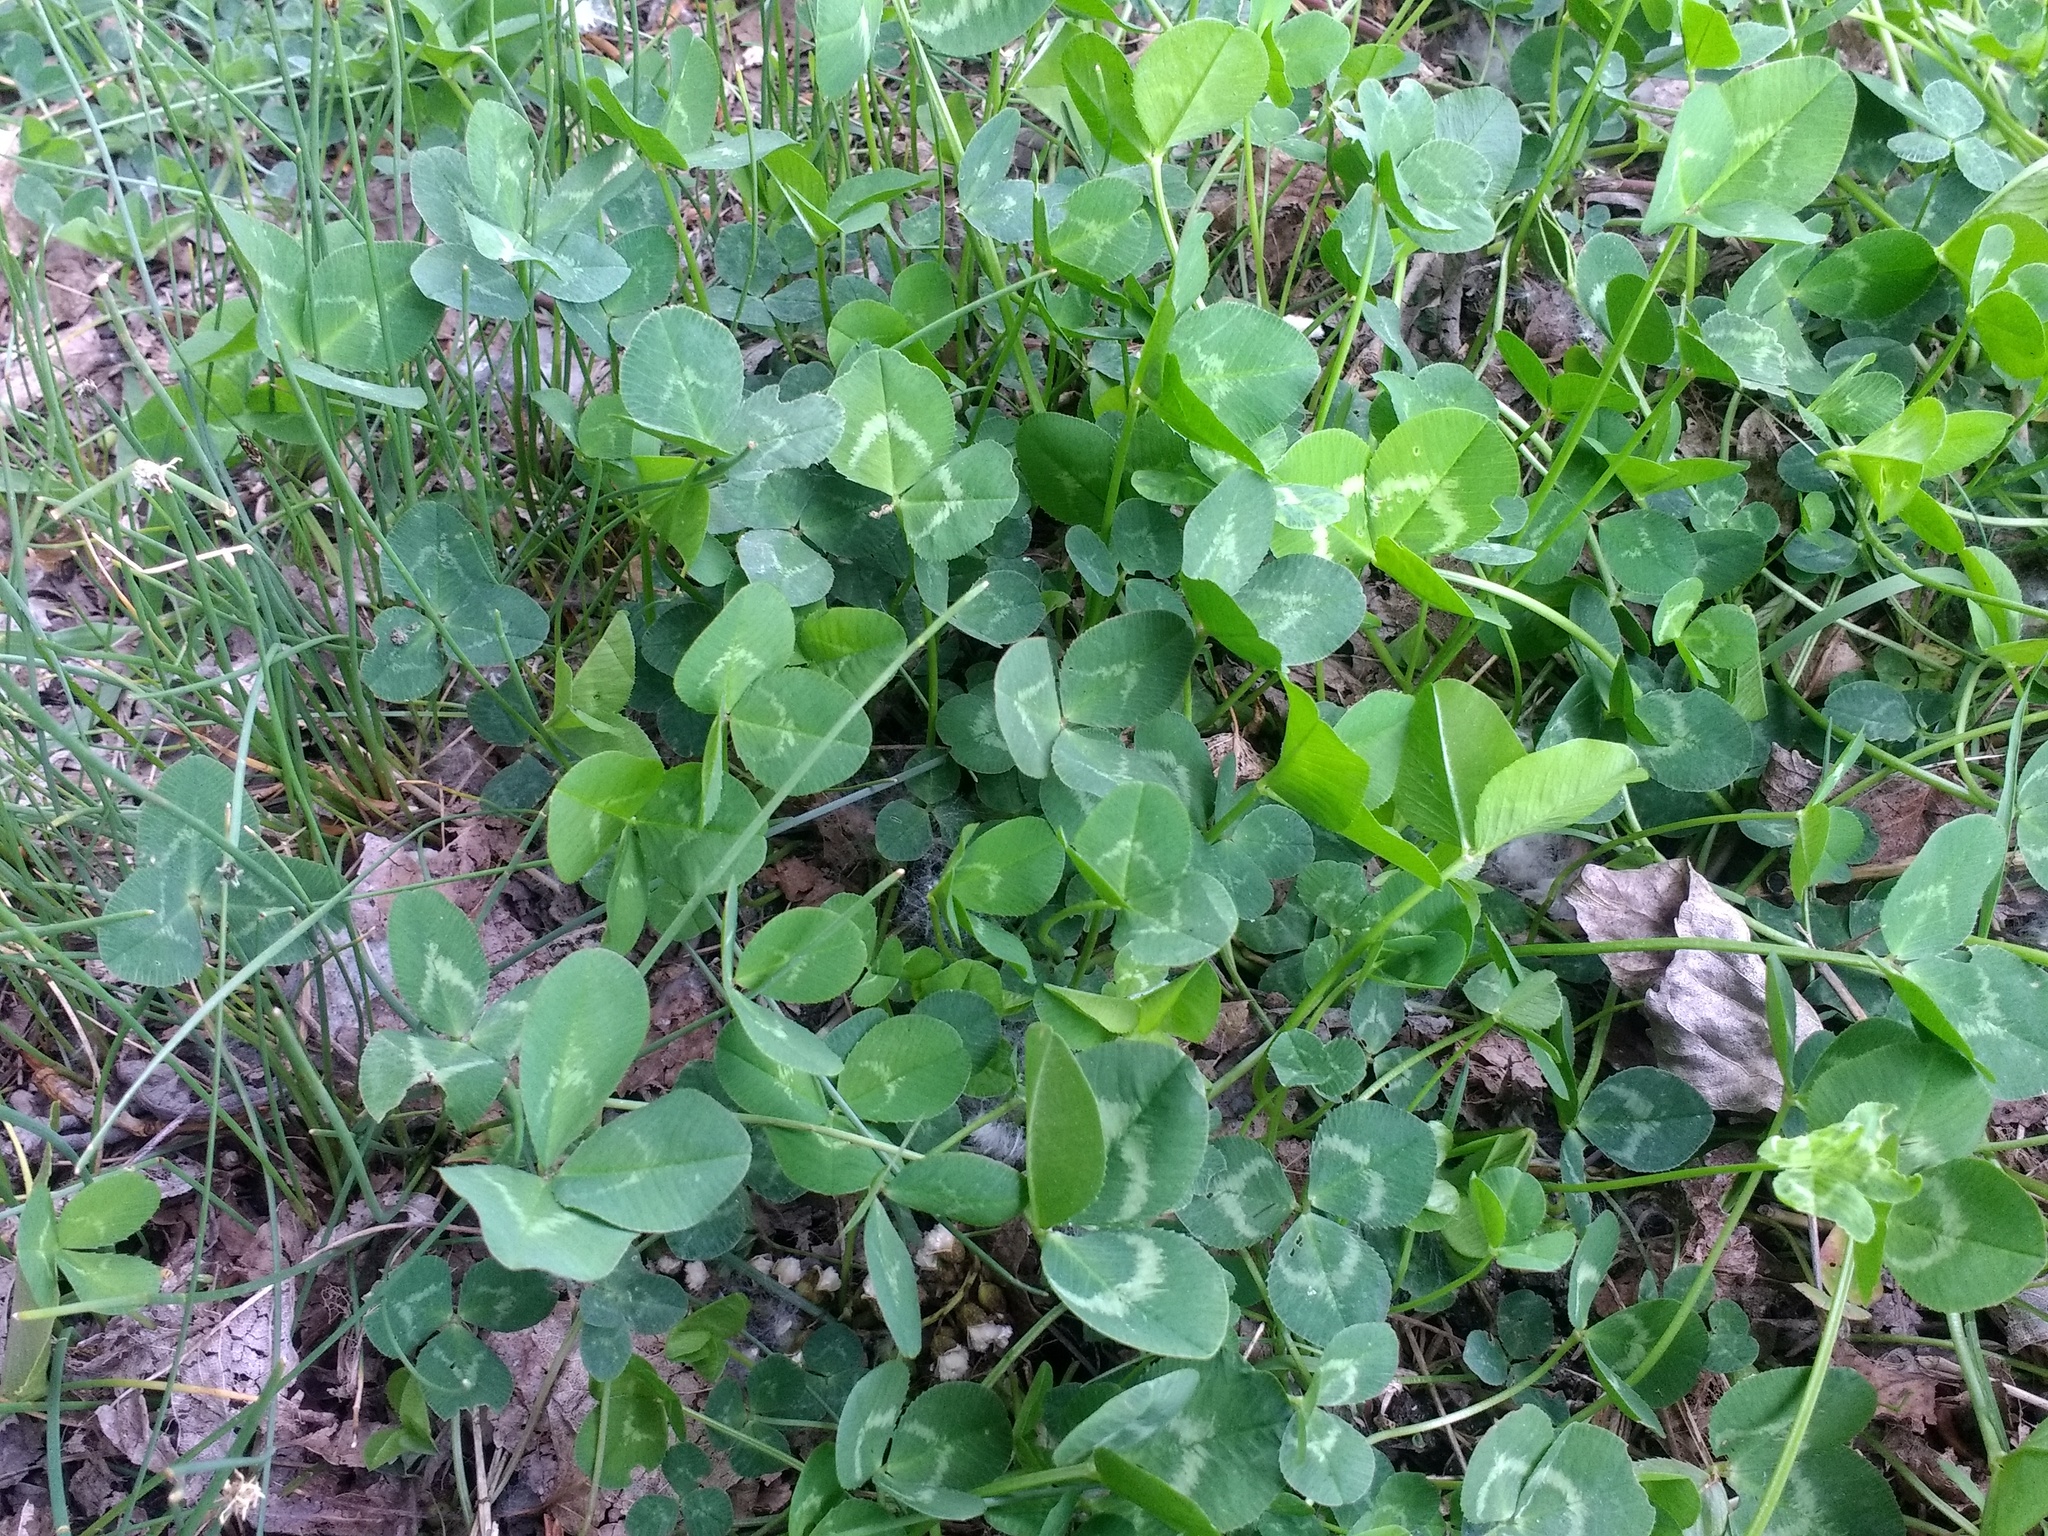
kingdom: Plantae
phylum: Tracheophyta
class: Magnoliopsida
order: Fabales
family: Fabaceae
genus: Trifolium
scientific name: Trifolium repens
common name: White clover
